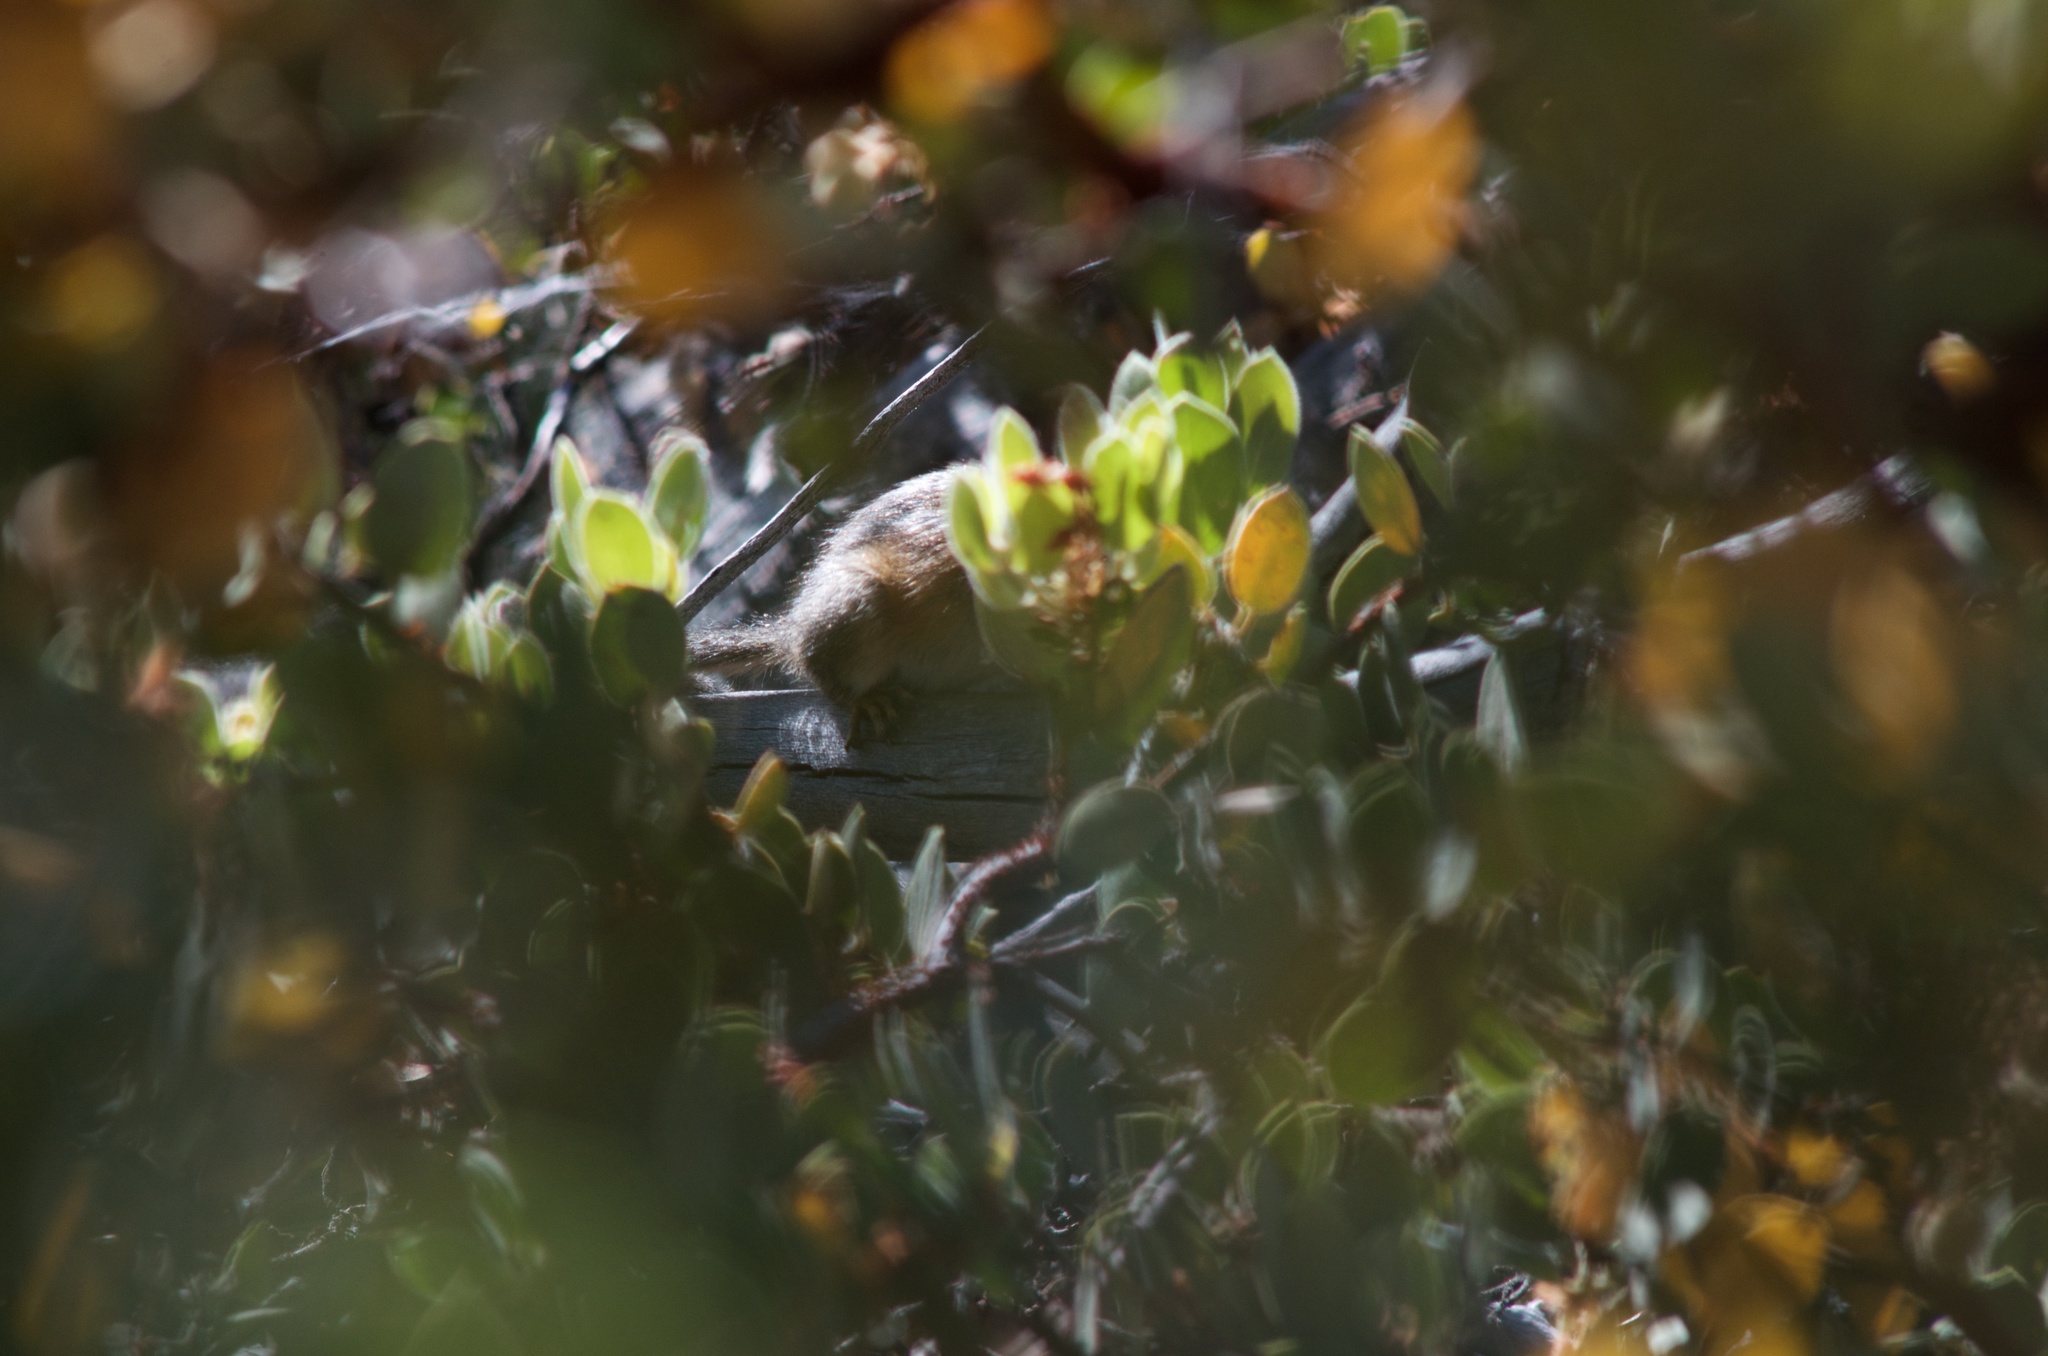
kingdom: Animalia
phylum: Chordata
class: Mammalia
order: Rodentia
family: Sciuridae
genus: Tamias
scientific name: Tamias merriami
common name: Merriam's chipmunk
